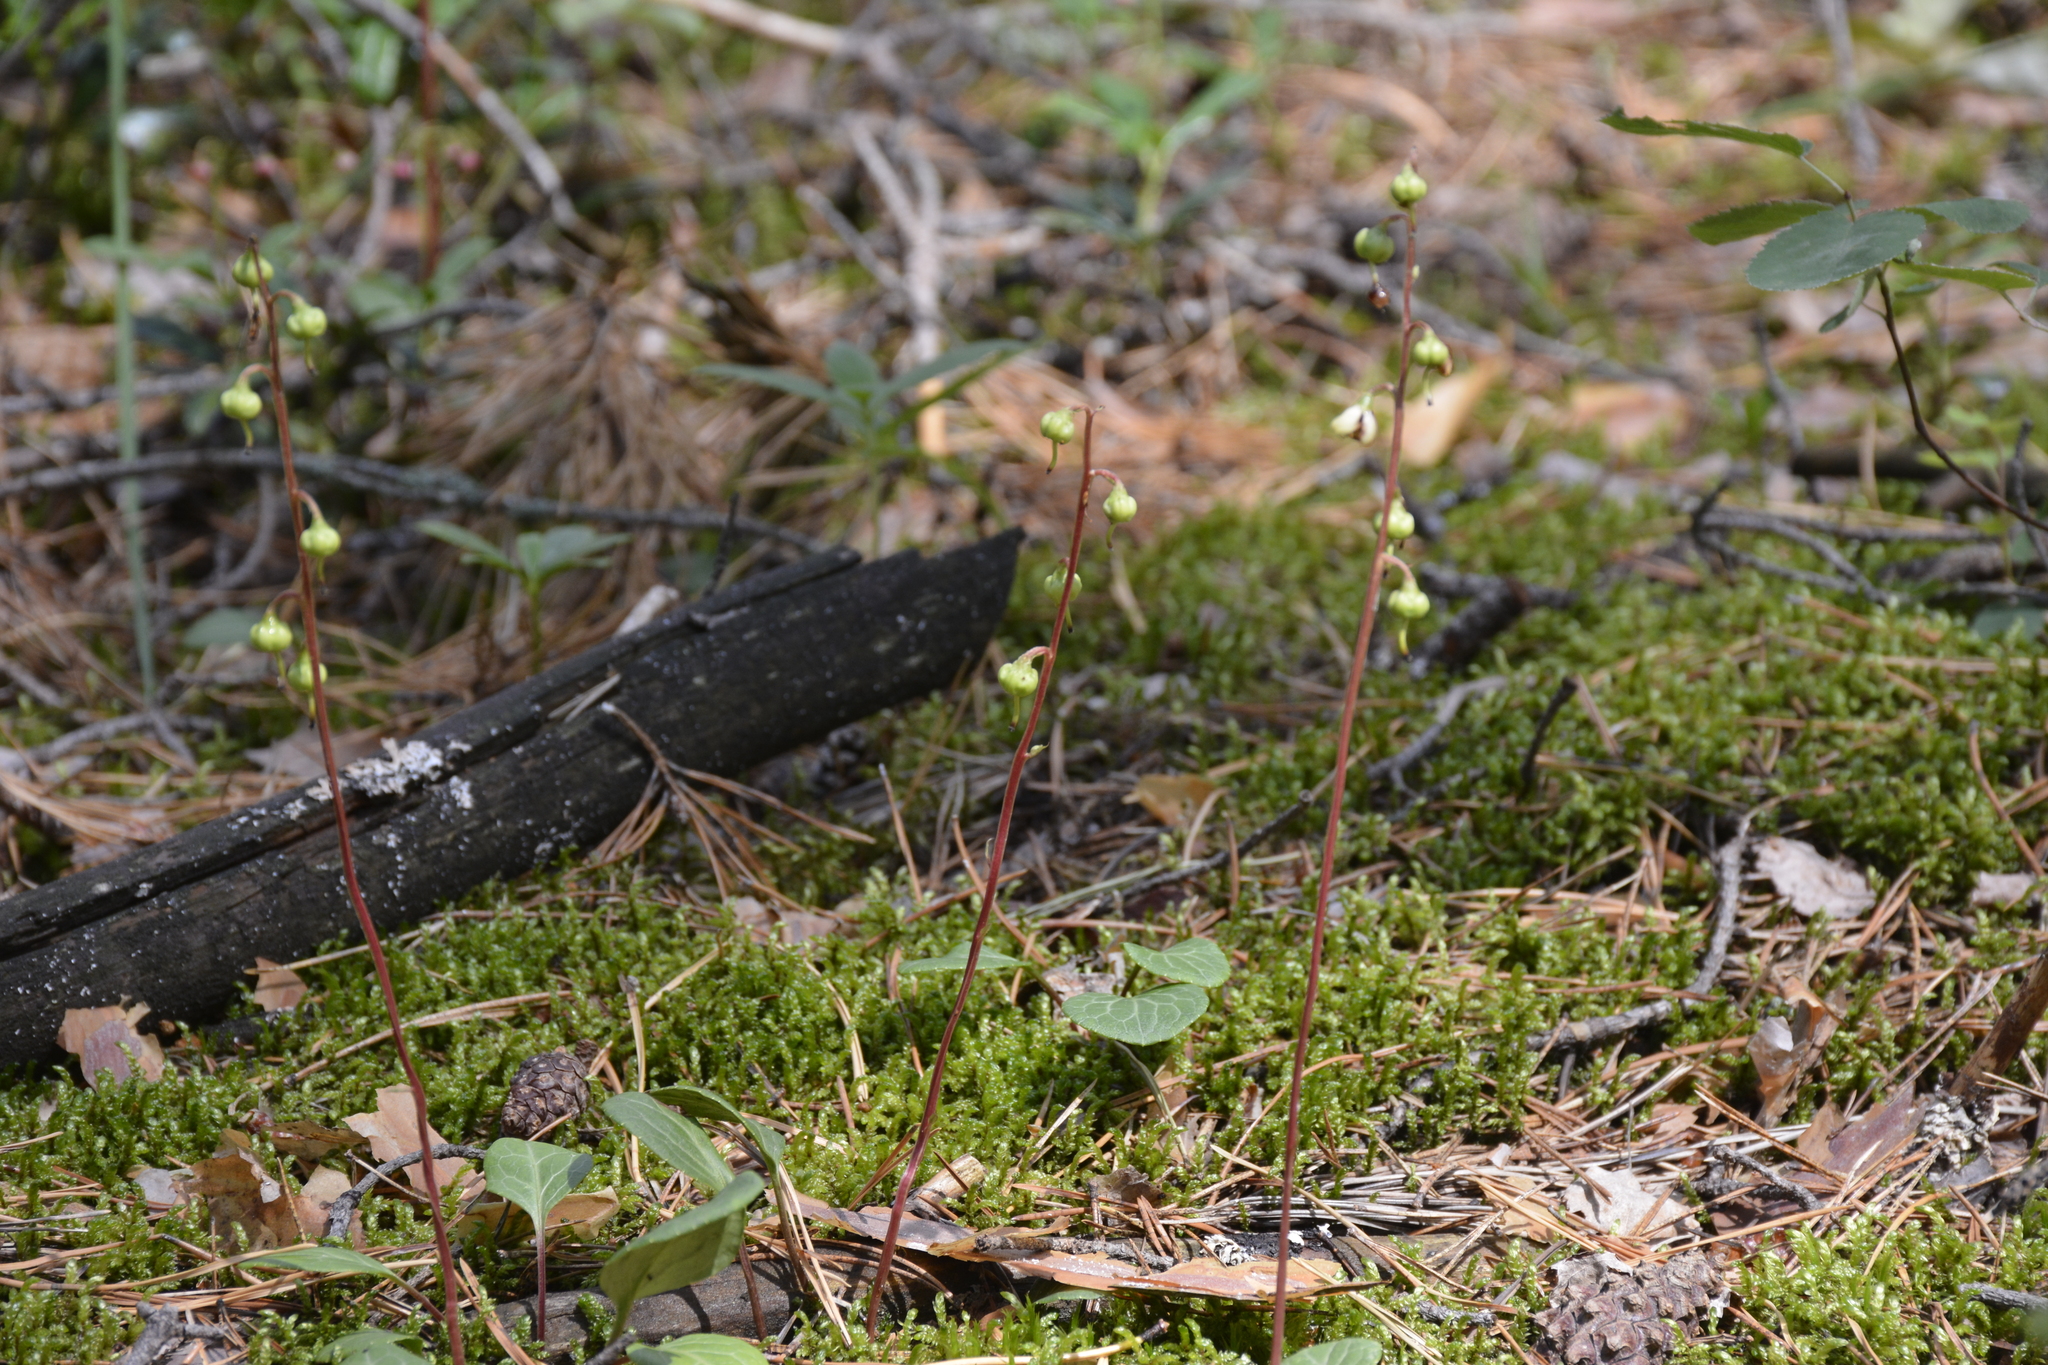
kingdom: Plantae
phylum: Tracheophyta
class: Magnoliopsida
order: Ericales
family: Ericaceae
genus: Pyrola
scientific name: Pyrola chlorantha
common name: Green wintergreen
